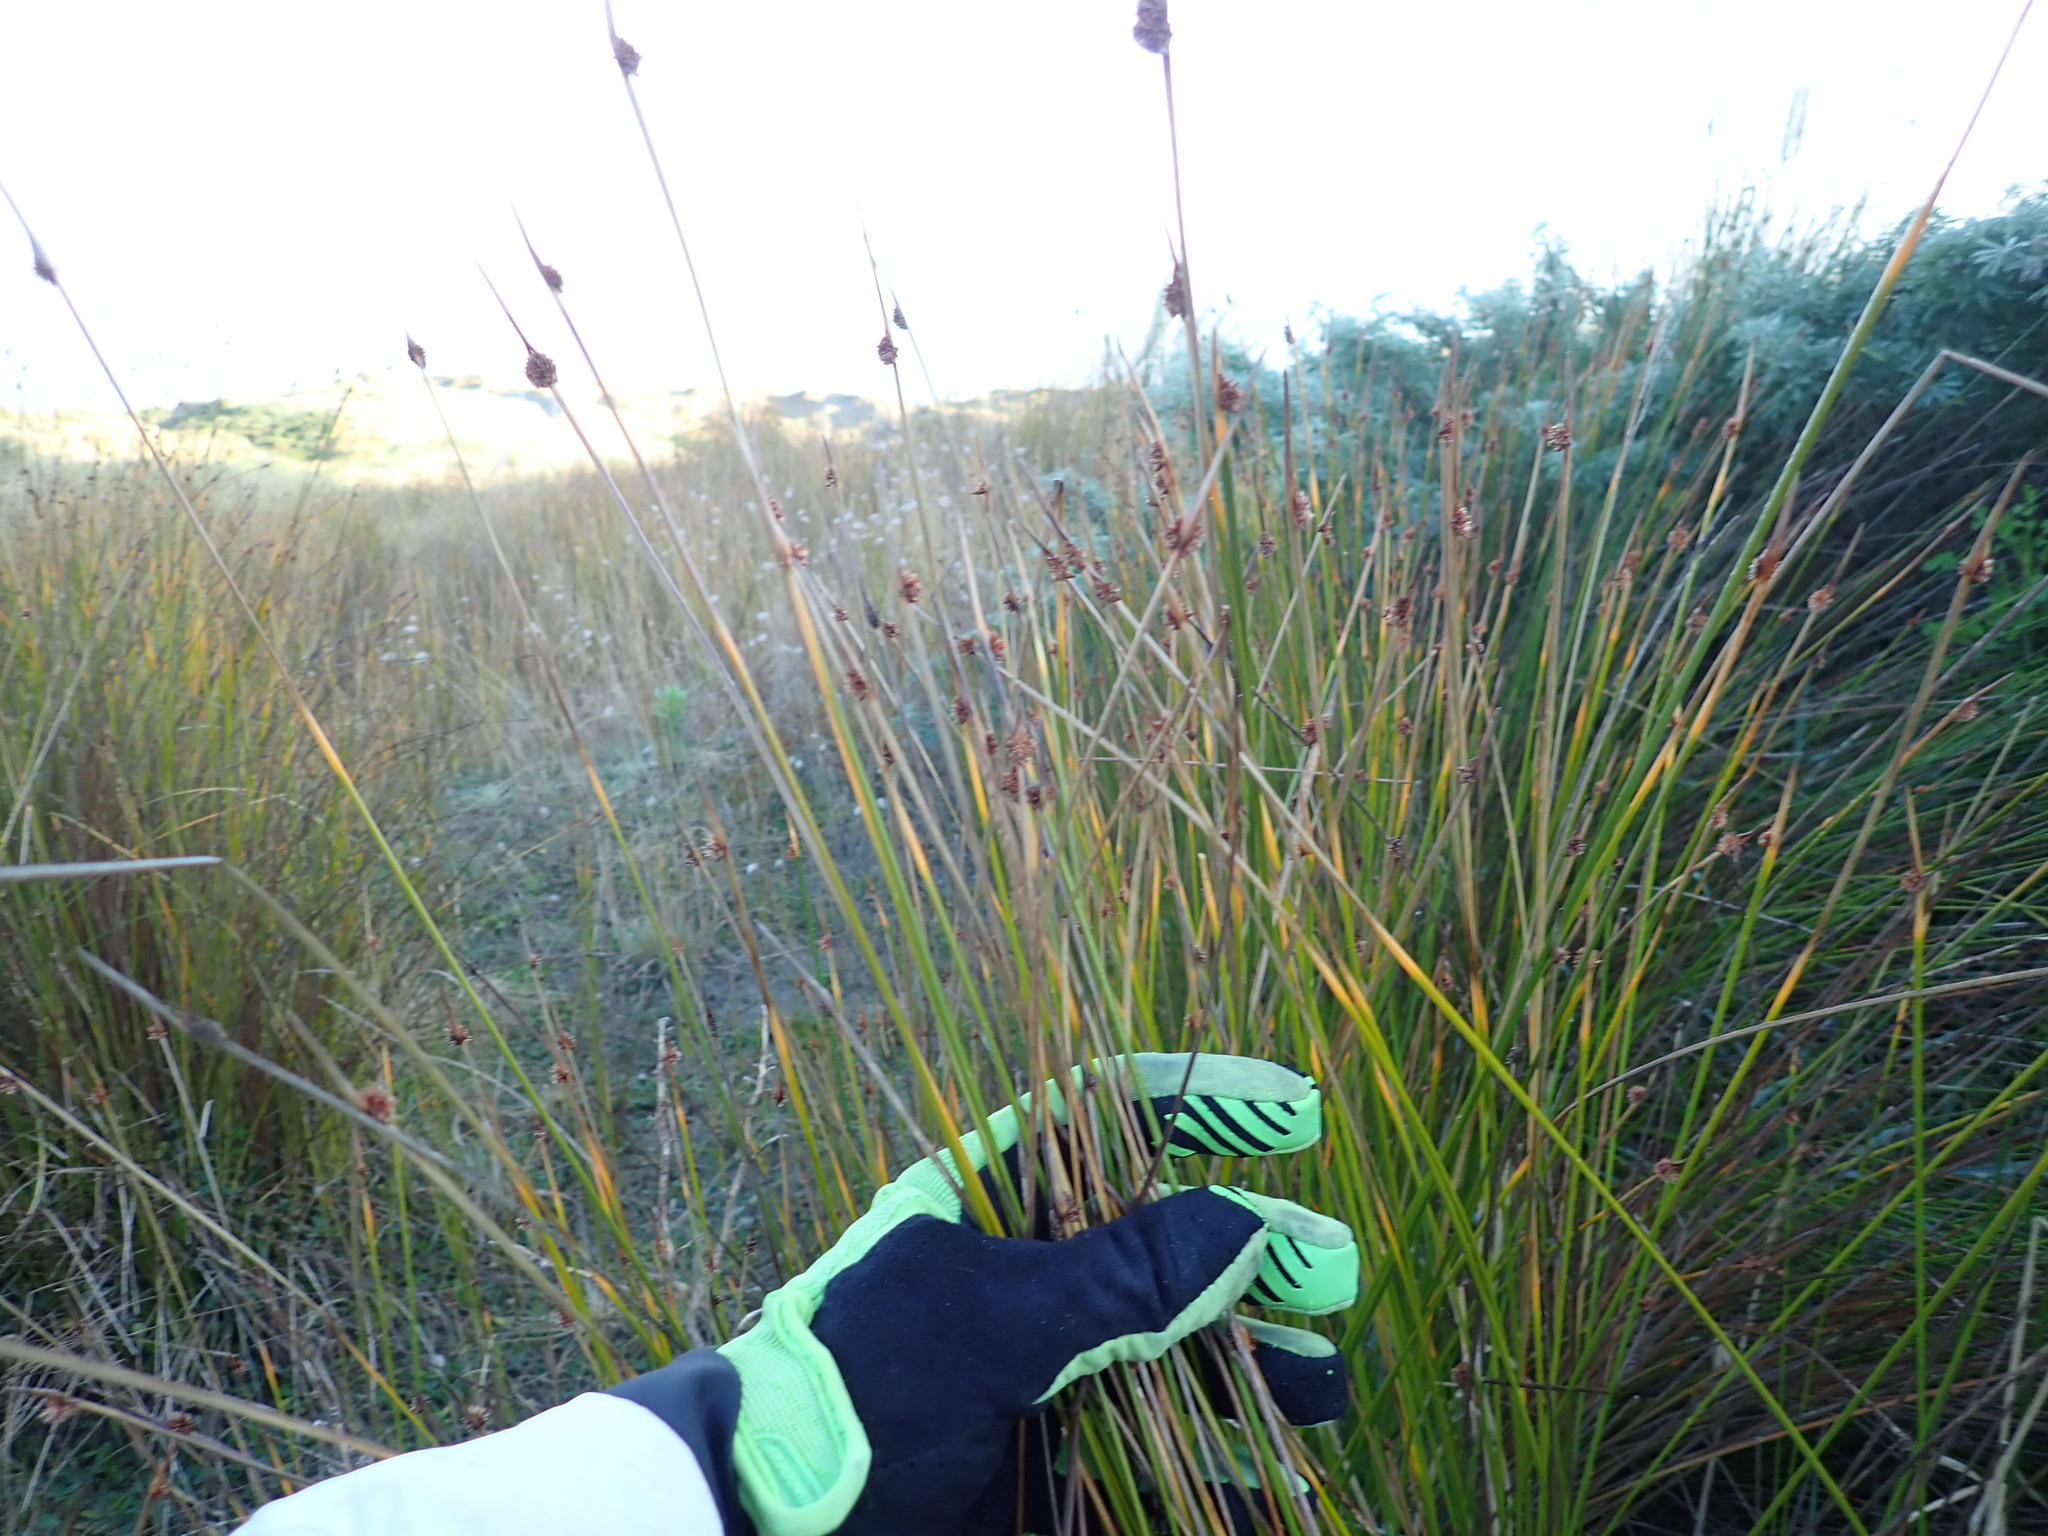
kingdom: Plantae
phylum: Tracheophyta
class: Liliopsida
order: Poales
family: Cyperaceae
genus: Ficinia
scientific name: Ficinia nodosa
